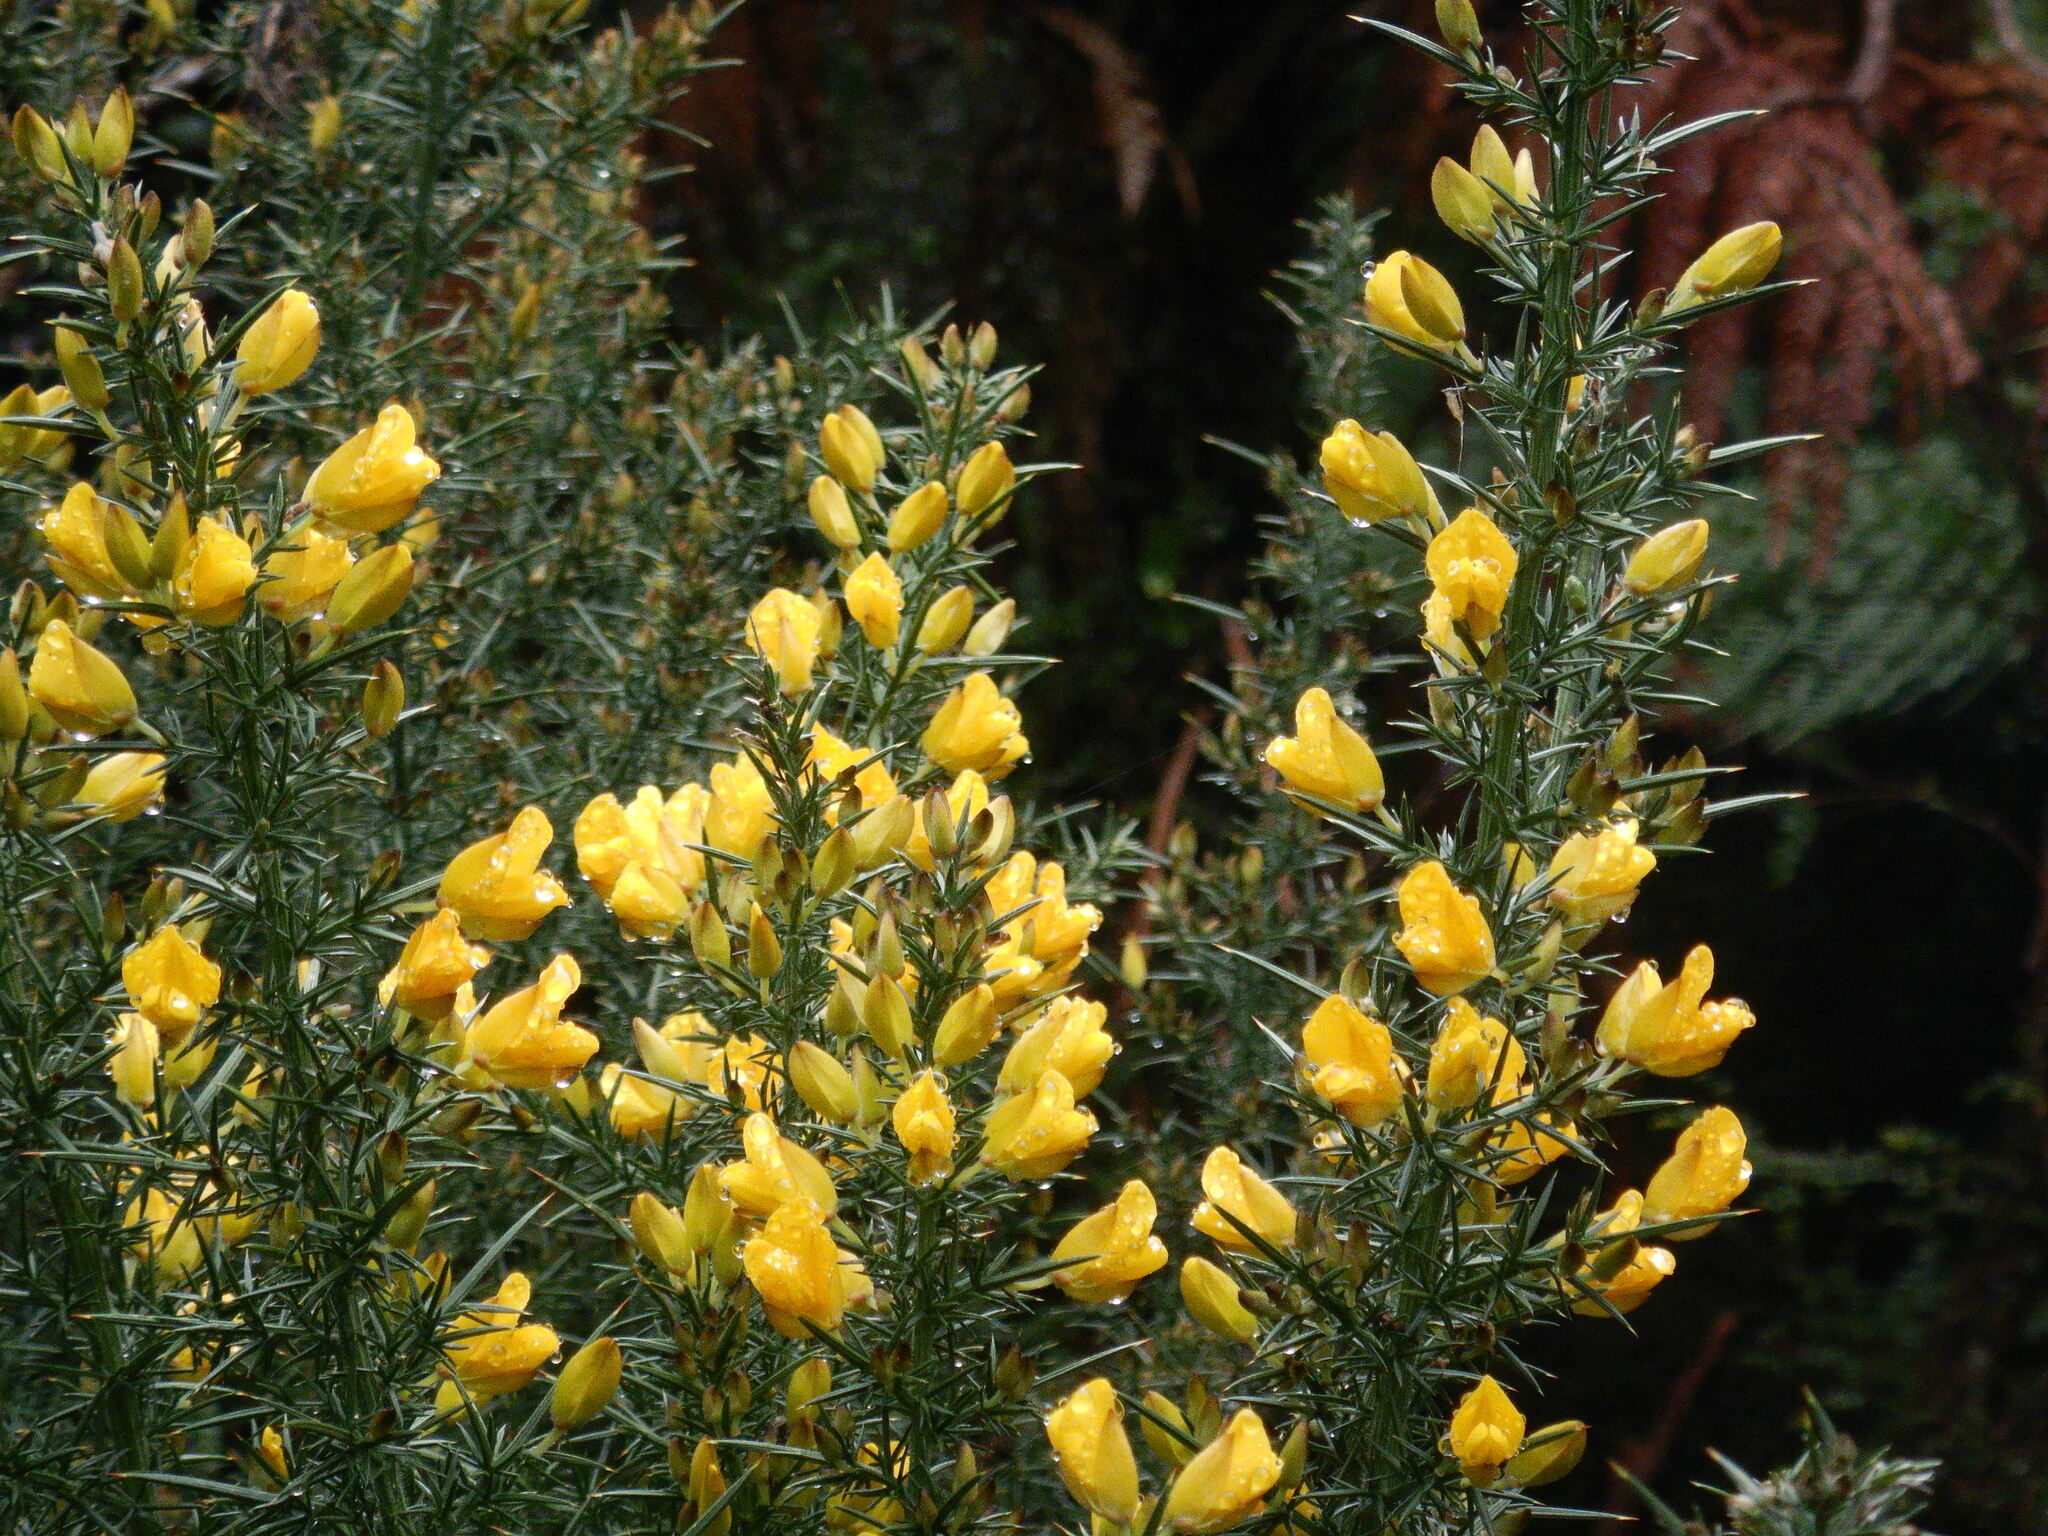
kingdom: Plantae
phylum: Tracheophyta
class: Magnoliopsida
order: Fabales
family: Fabaceae
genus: Ulex
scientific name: Ulex europaeus
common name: Common gorse
